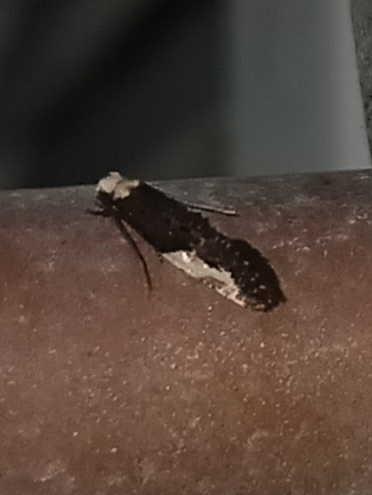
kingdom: Animalia
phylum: Arthropoda
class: Insecta
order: Lepidoptera
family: Tineidae
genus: Monopis
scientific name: Monopis longella
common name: Pavlovski's monopis moth
